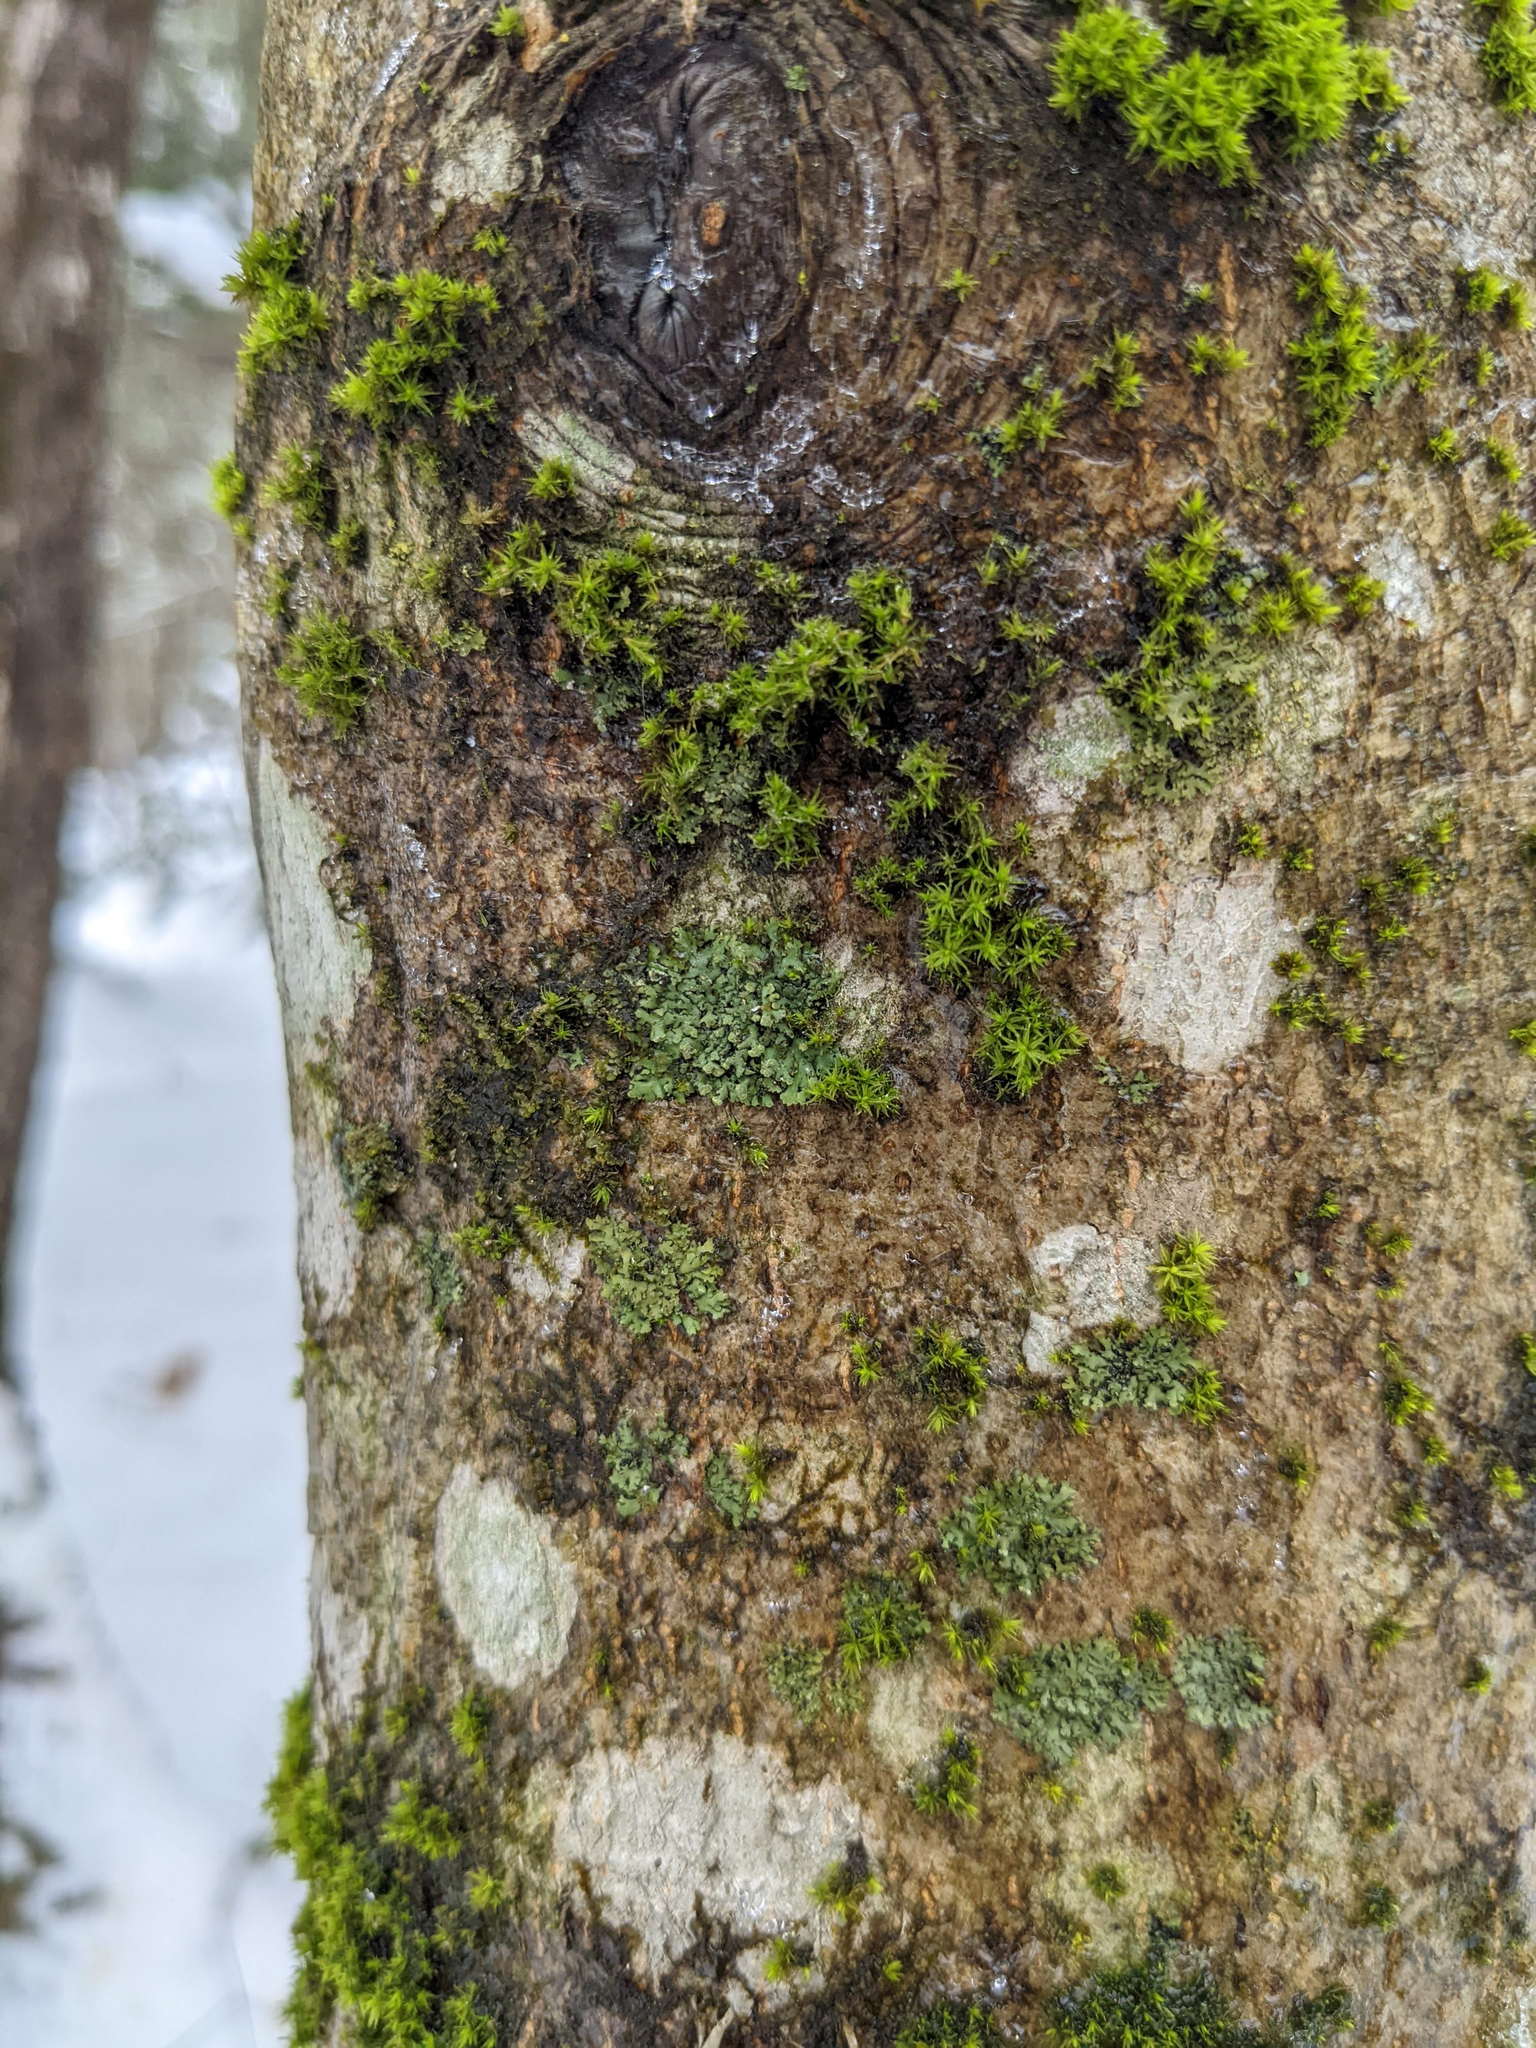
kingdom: Plantae
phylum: Bryophyta
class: Bryopsida
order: Orthotrichales
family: Orthotrichaceae
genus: Ulota
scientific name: Ulota crispa
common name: Crisped pincushion moss
